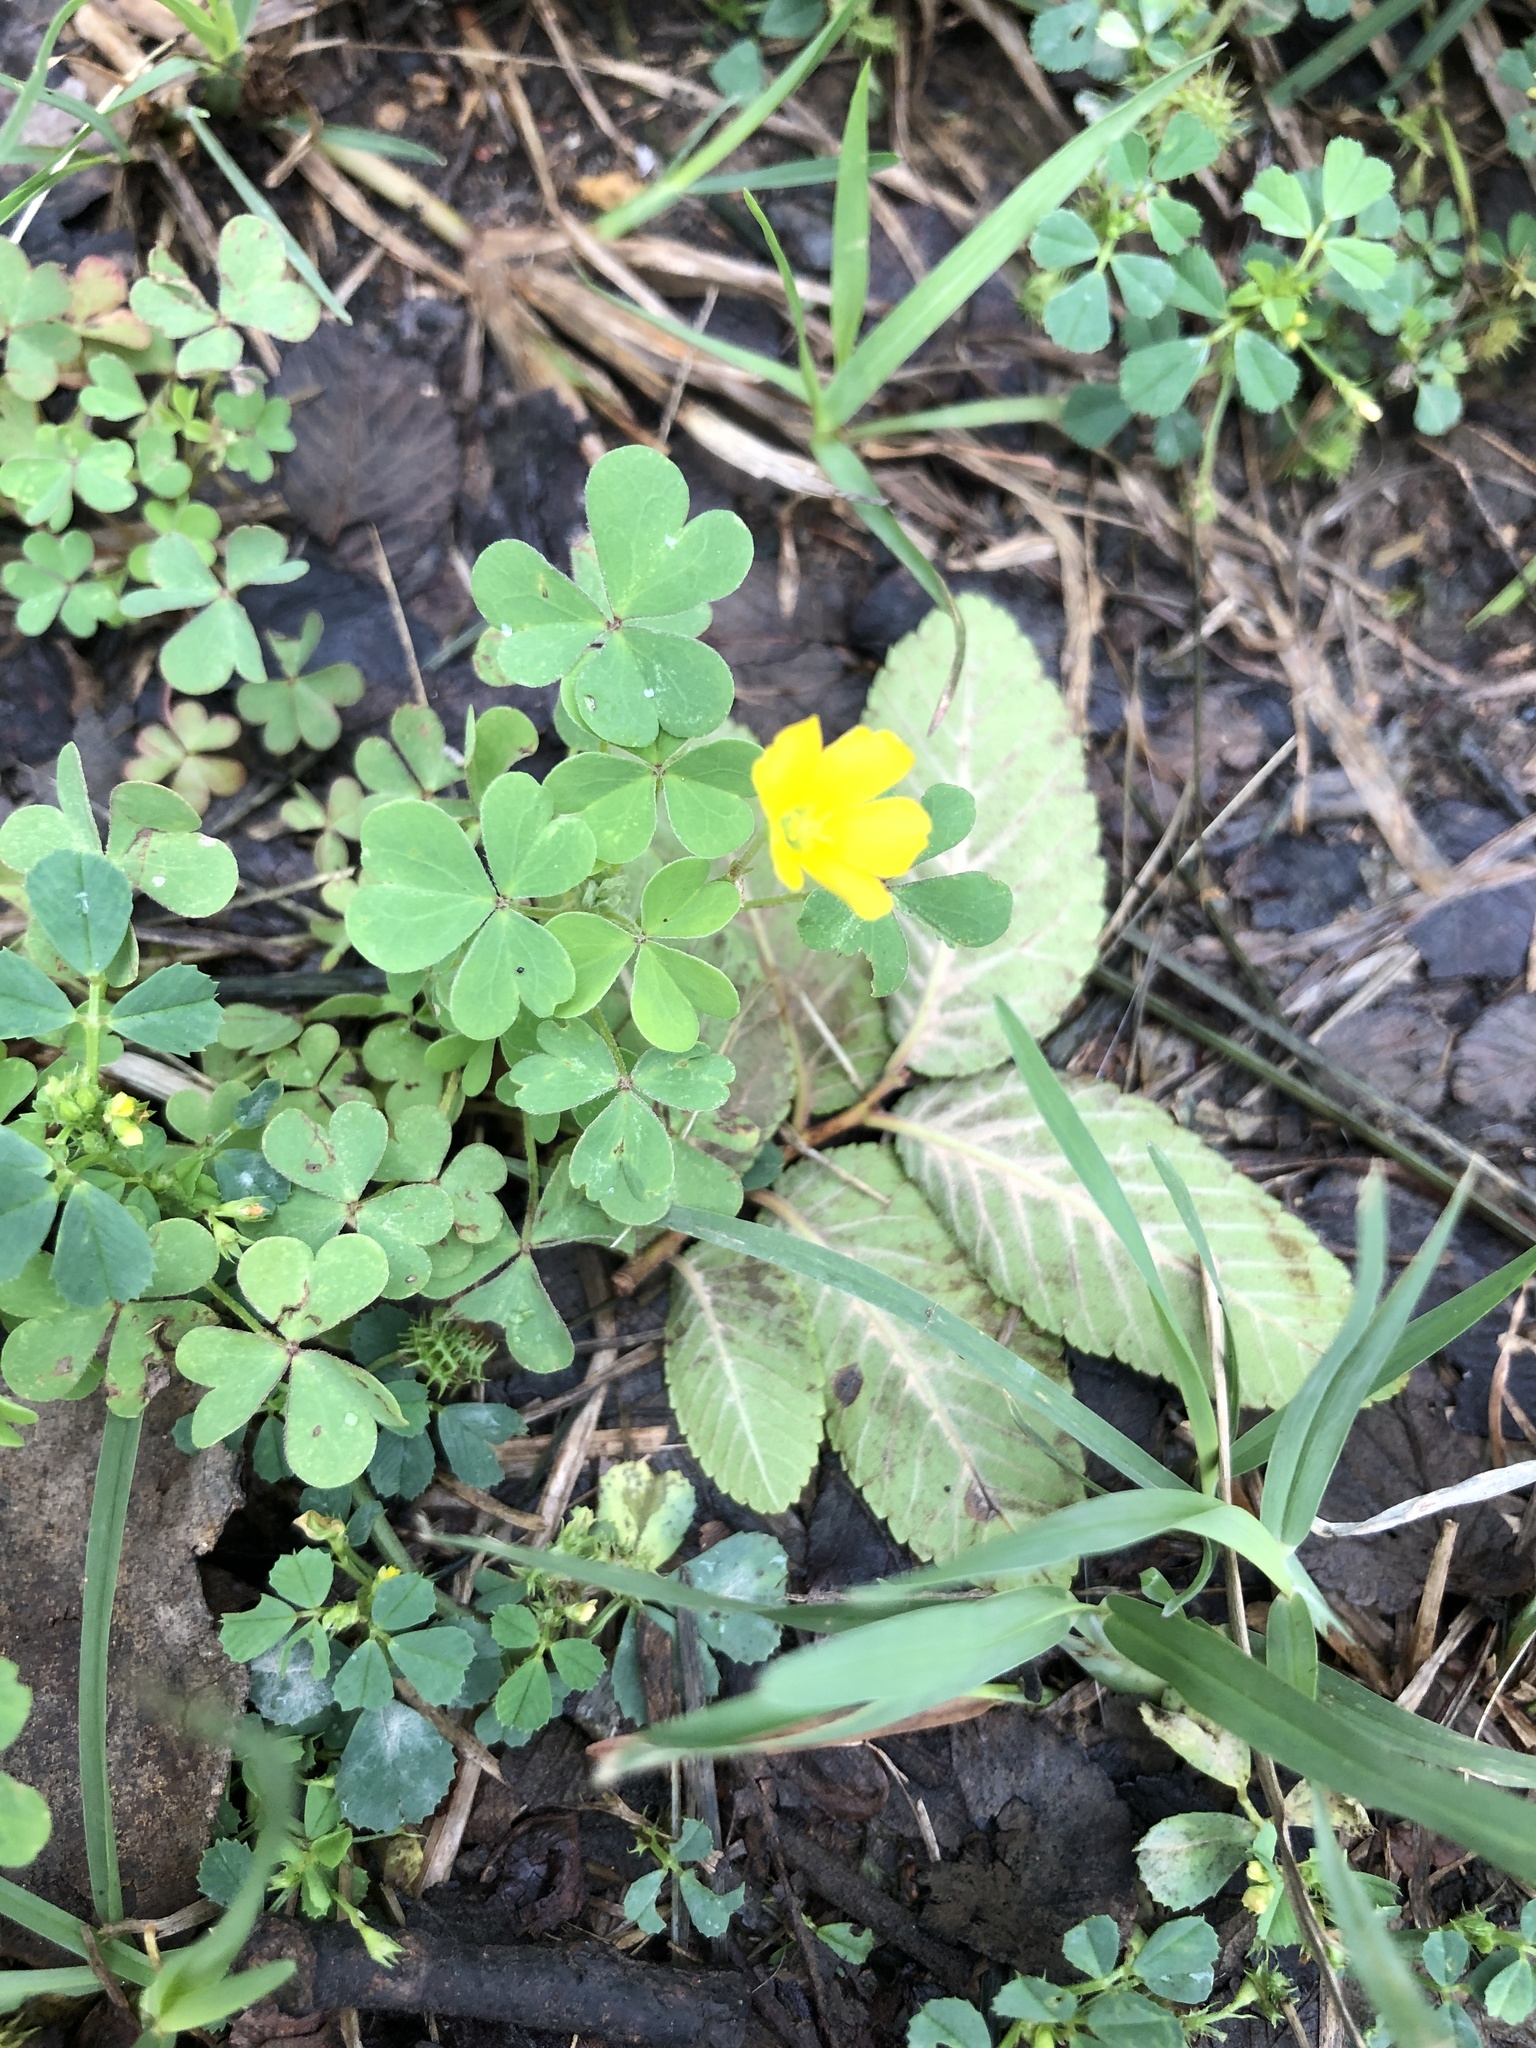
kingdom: Plantae
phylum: Tracheophyta
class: Magnoliopsida
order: Oxalidales
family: Oxalidaceae
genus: Oxalis
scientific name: Oxalis dillenii
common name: Sussex yellow-sorrel
